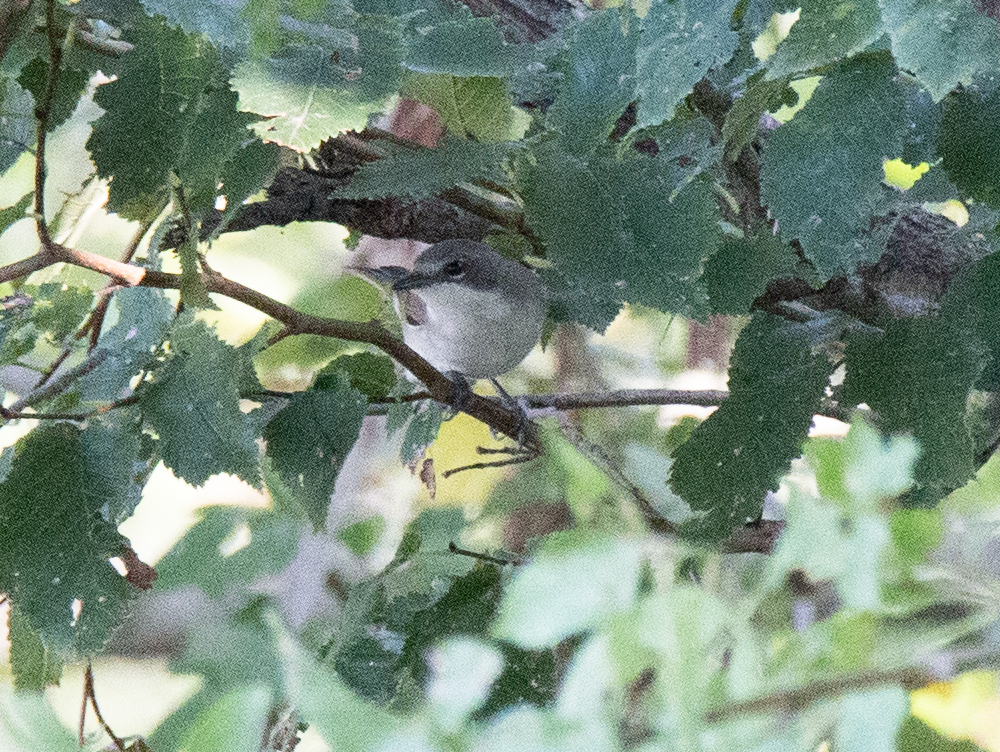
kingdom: Animalia
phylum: Chordata
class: Aves
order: Passeriformes
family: Sylviidae
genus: Sylvia
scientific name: Sylvia curruca
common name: Lesser whitethroat
